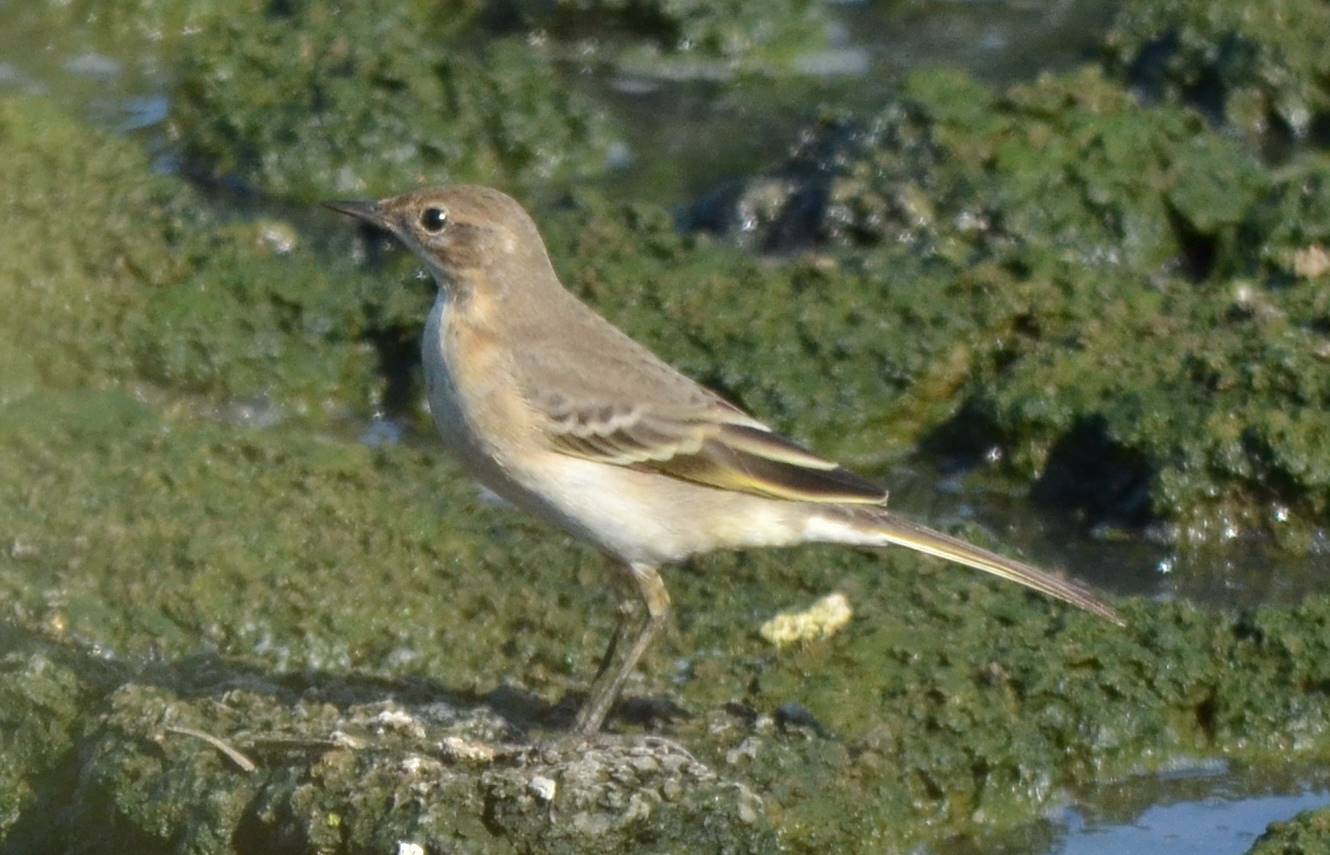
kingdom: Animalia
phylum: Chordata
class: Aves
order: Passeriformes
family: Motacillidae
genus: Motacilla
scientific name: Motacilla flava
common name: Western yellow wagtail
